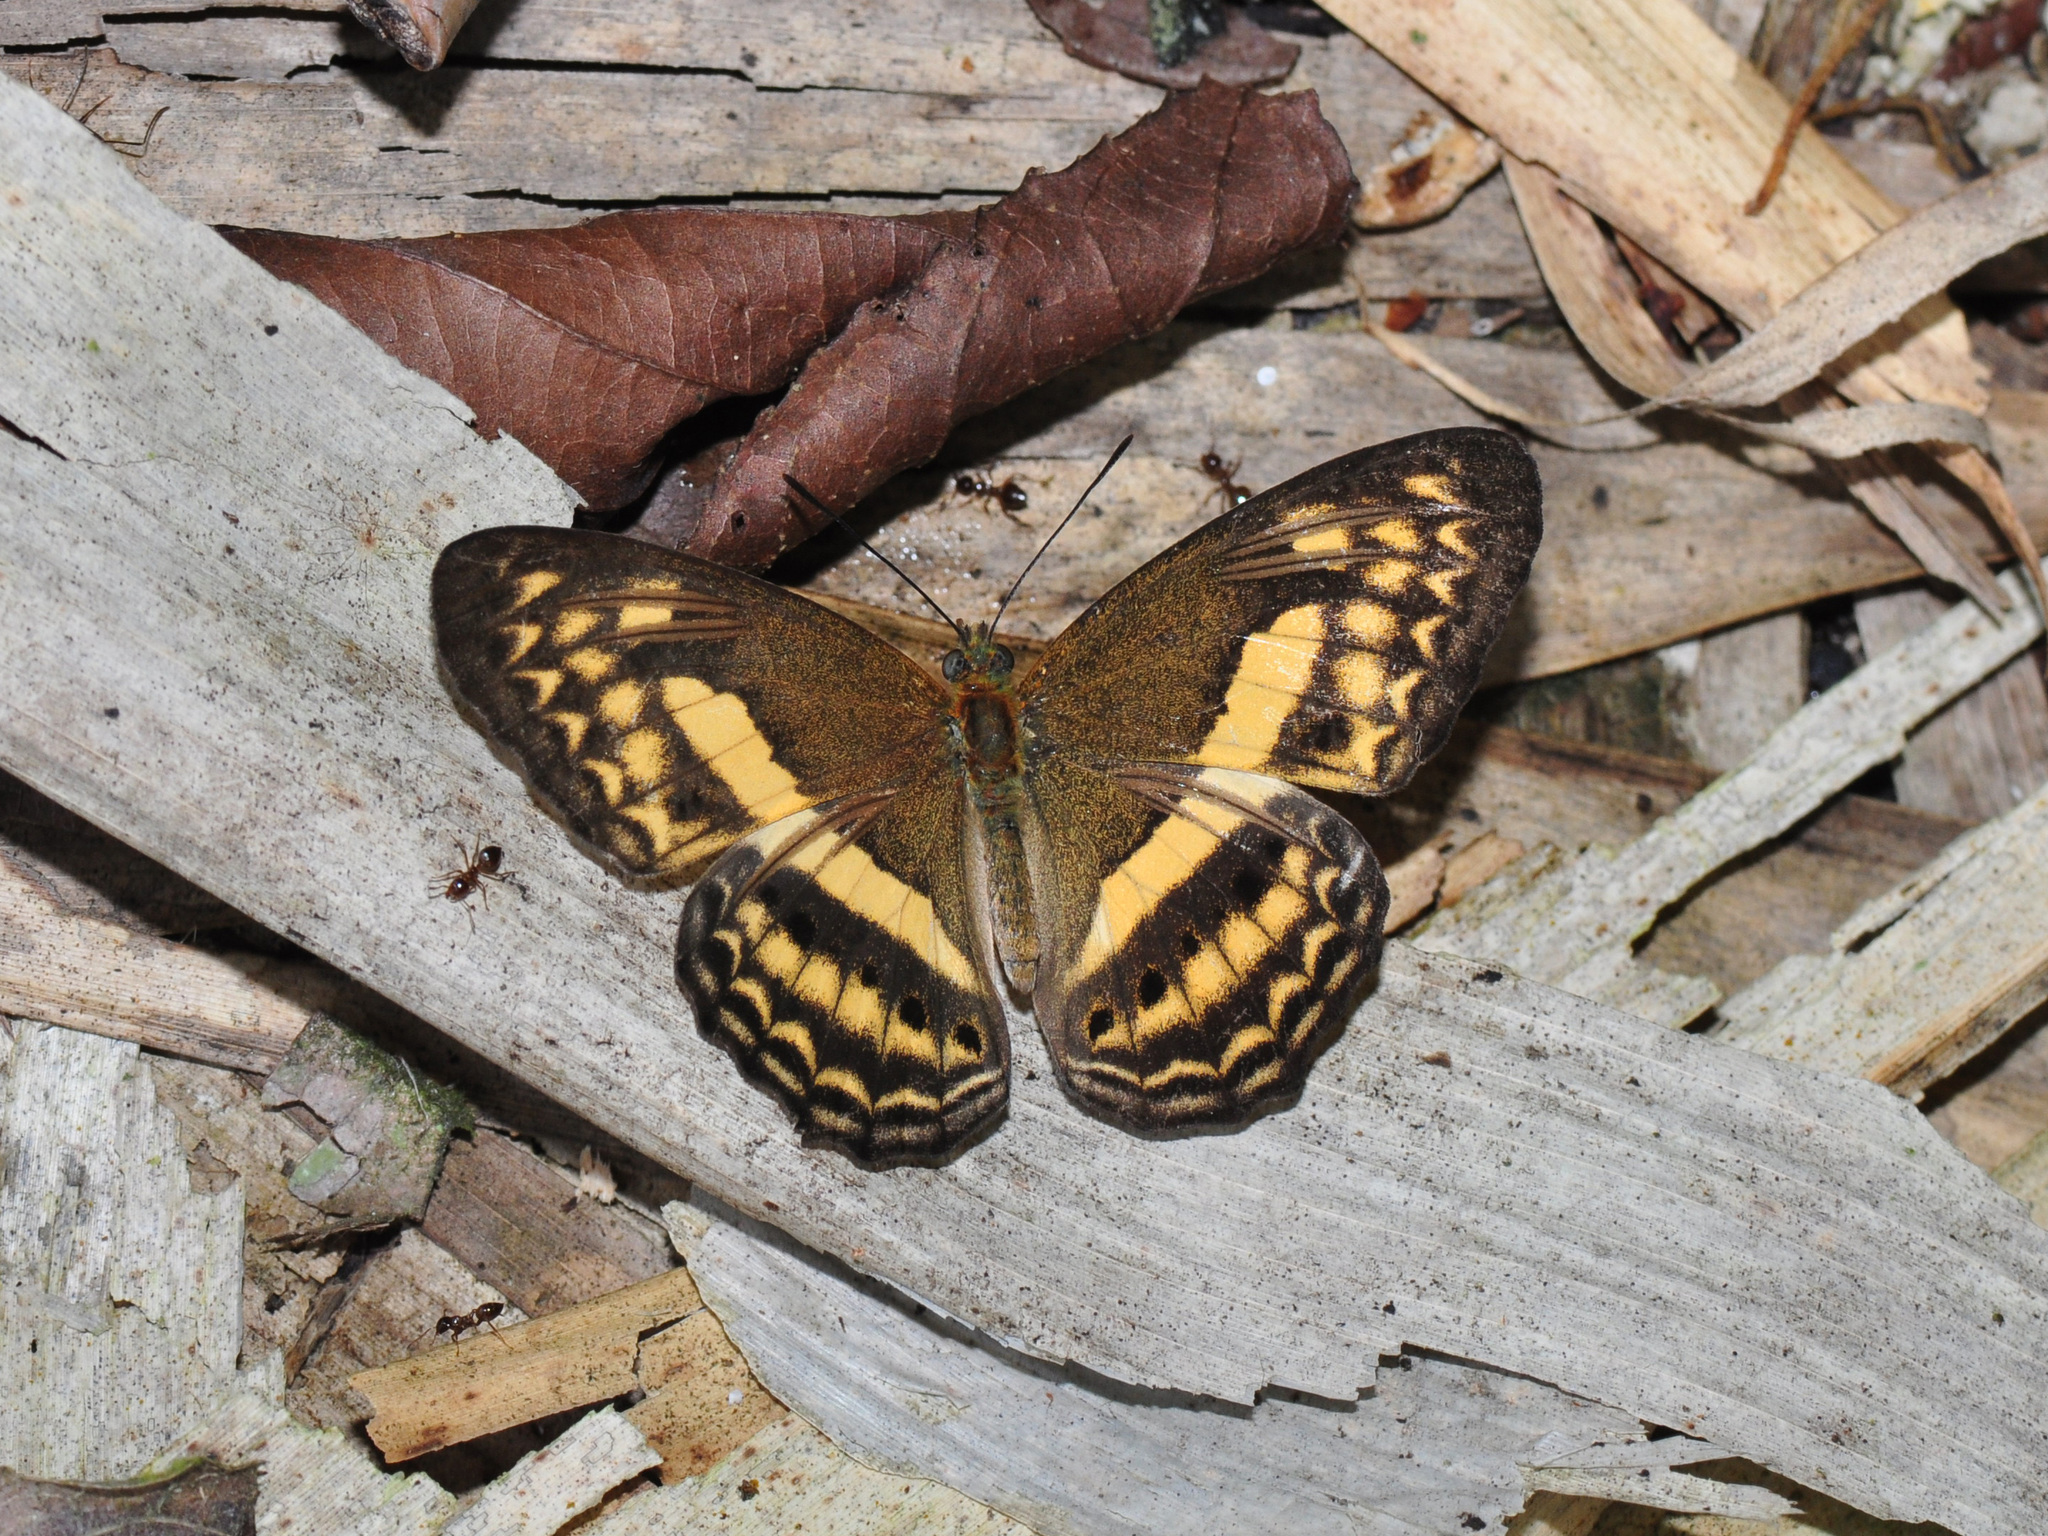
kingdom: Animalia
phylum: Arthropoda
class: Insecta
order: Lepidoptera
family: Nymphalidae
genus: Algia
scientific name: Algia fasciata
